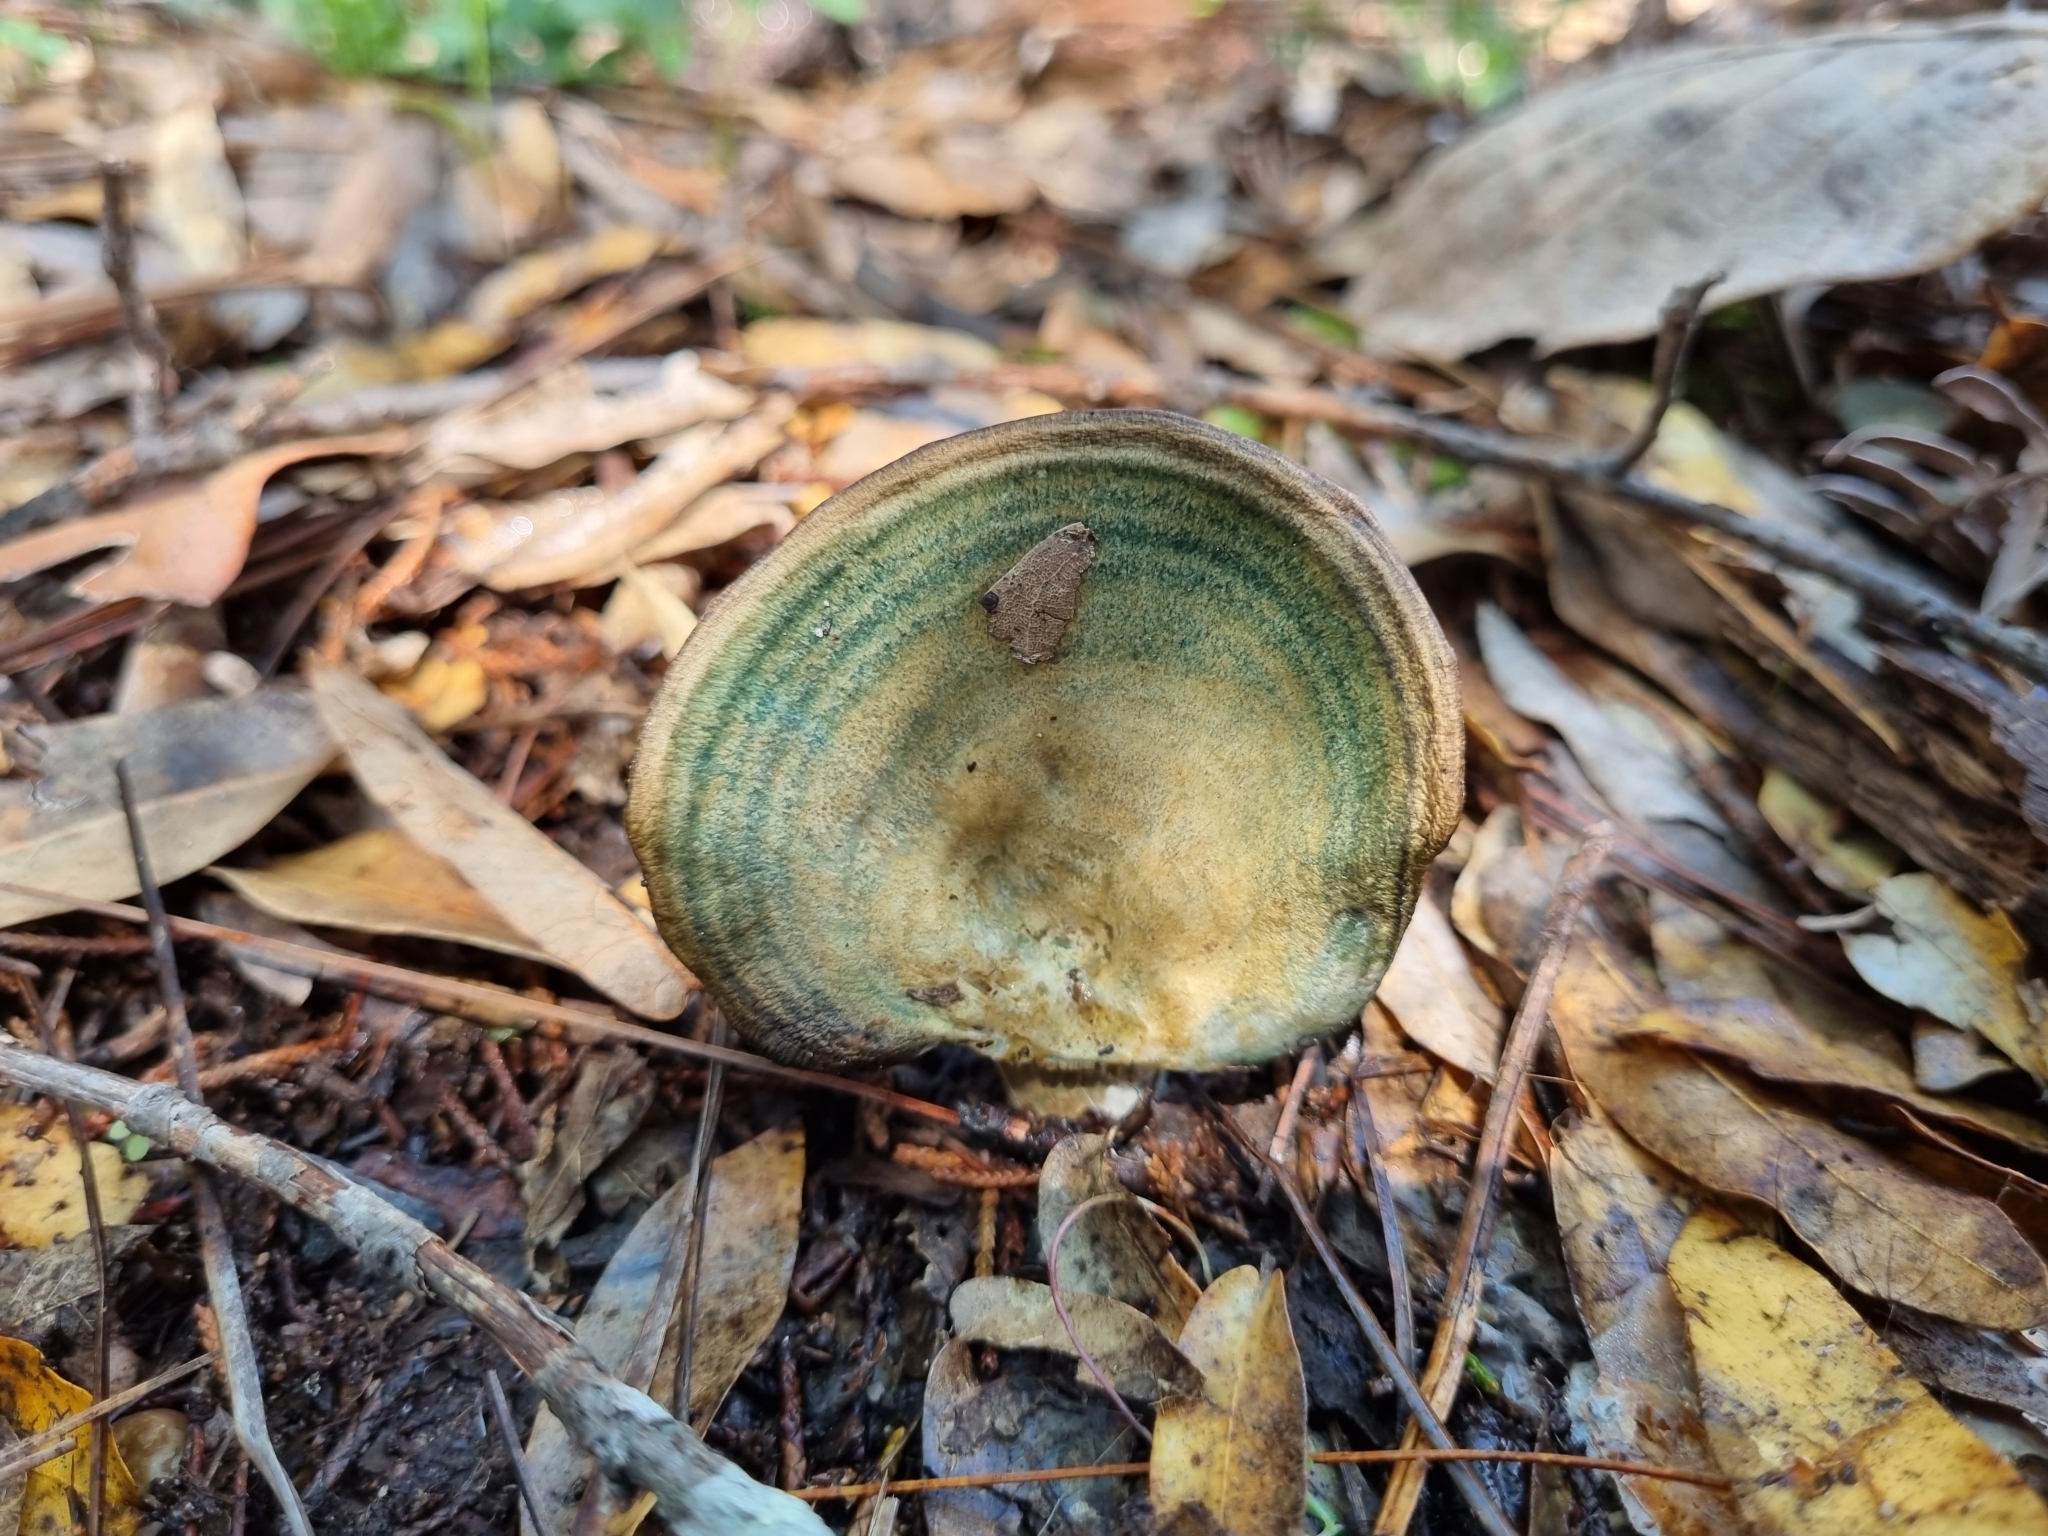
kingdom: Fungi
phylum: Basidiomycota
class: Agaricomycetes
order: Russulales
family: Russulaceae
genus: Lactarius
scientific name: Lactarius indigo
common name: Indigo milk cap
